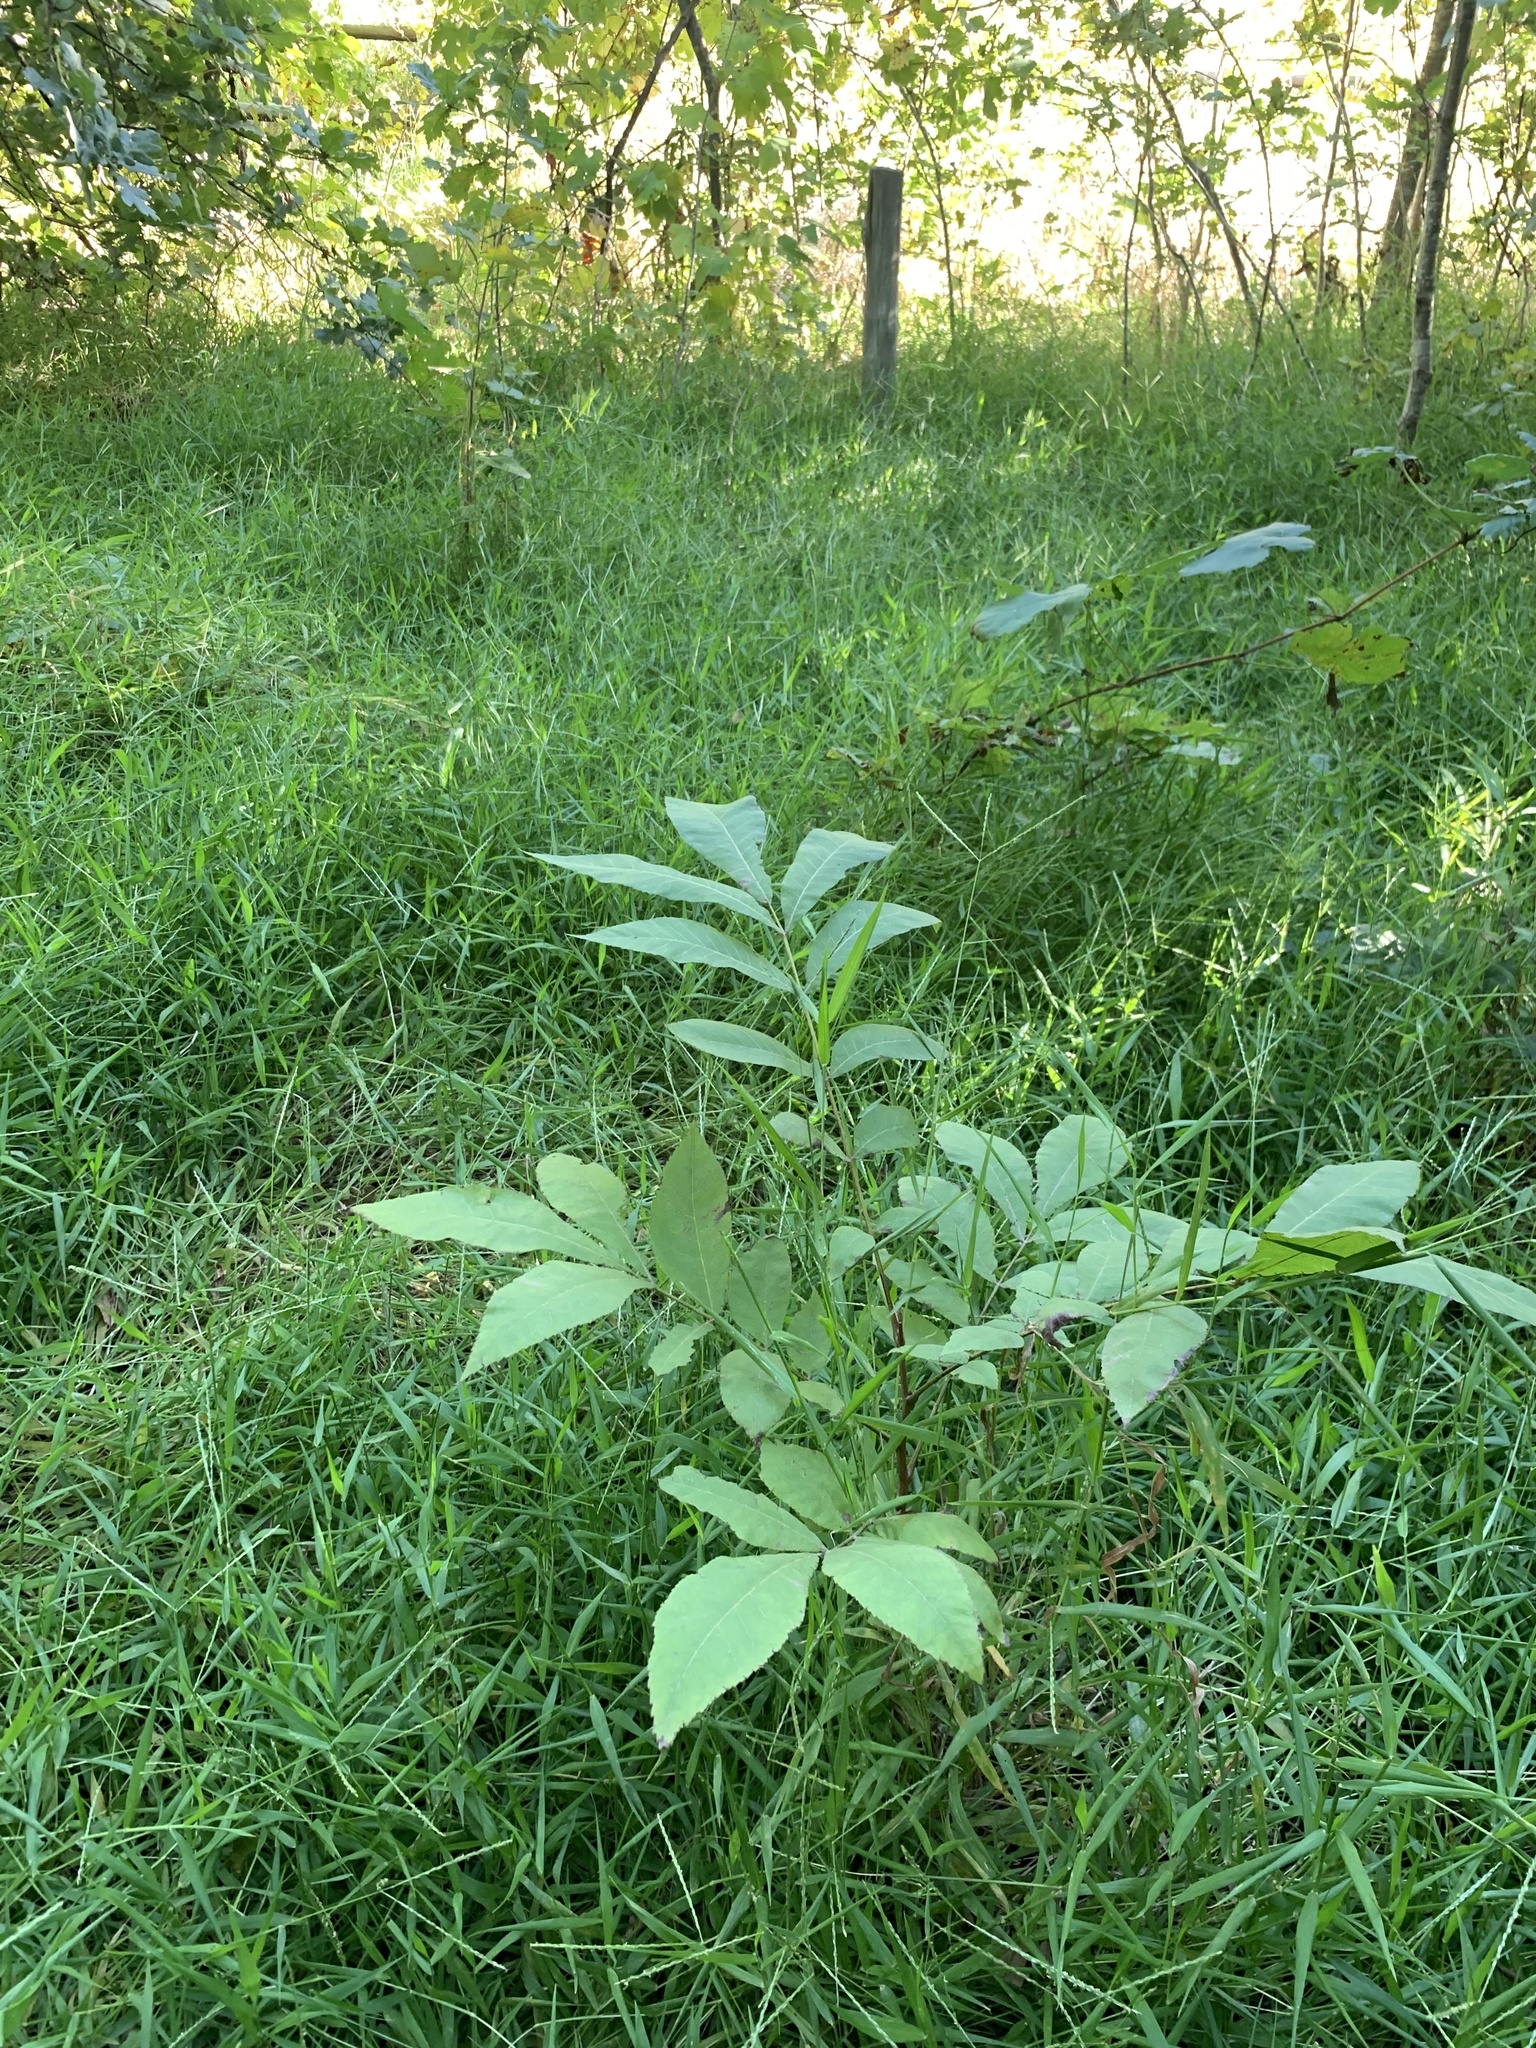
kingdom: Plantae
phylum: Tracheophyta
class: Magnoliopsida
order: Fagales
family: Juglandaceae
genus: Carya
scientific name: Carya illinoinensis
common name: Pecan
